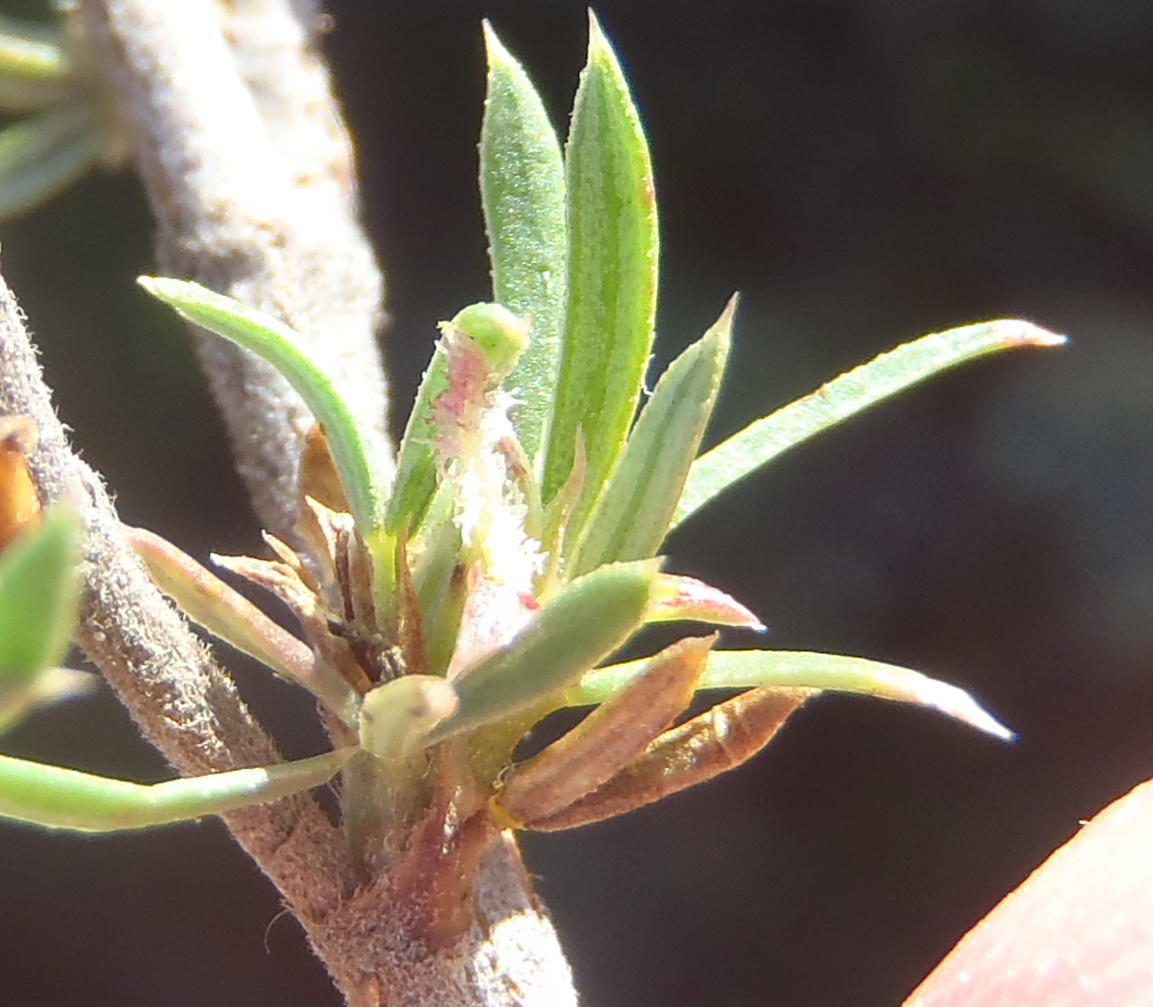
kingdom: Plantae
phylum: Tracheophyta
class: Magnoliopsida
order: Rosales
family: Rosaceae
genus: Cliffortia
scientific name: Cliffortia arcuata
